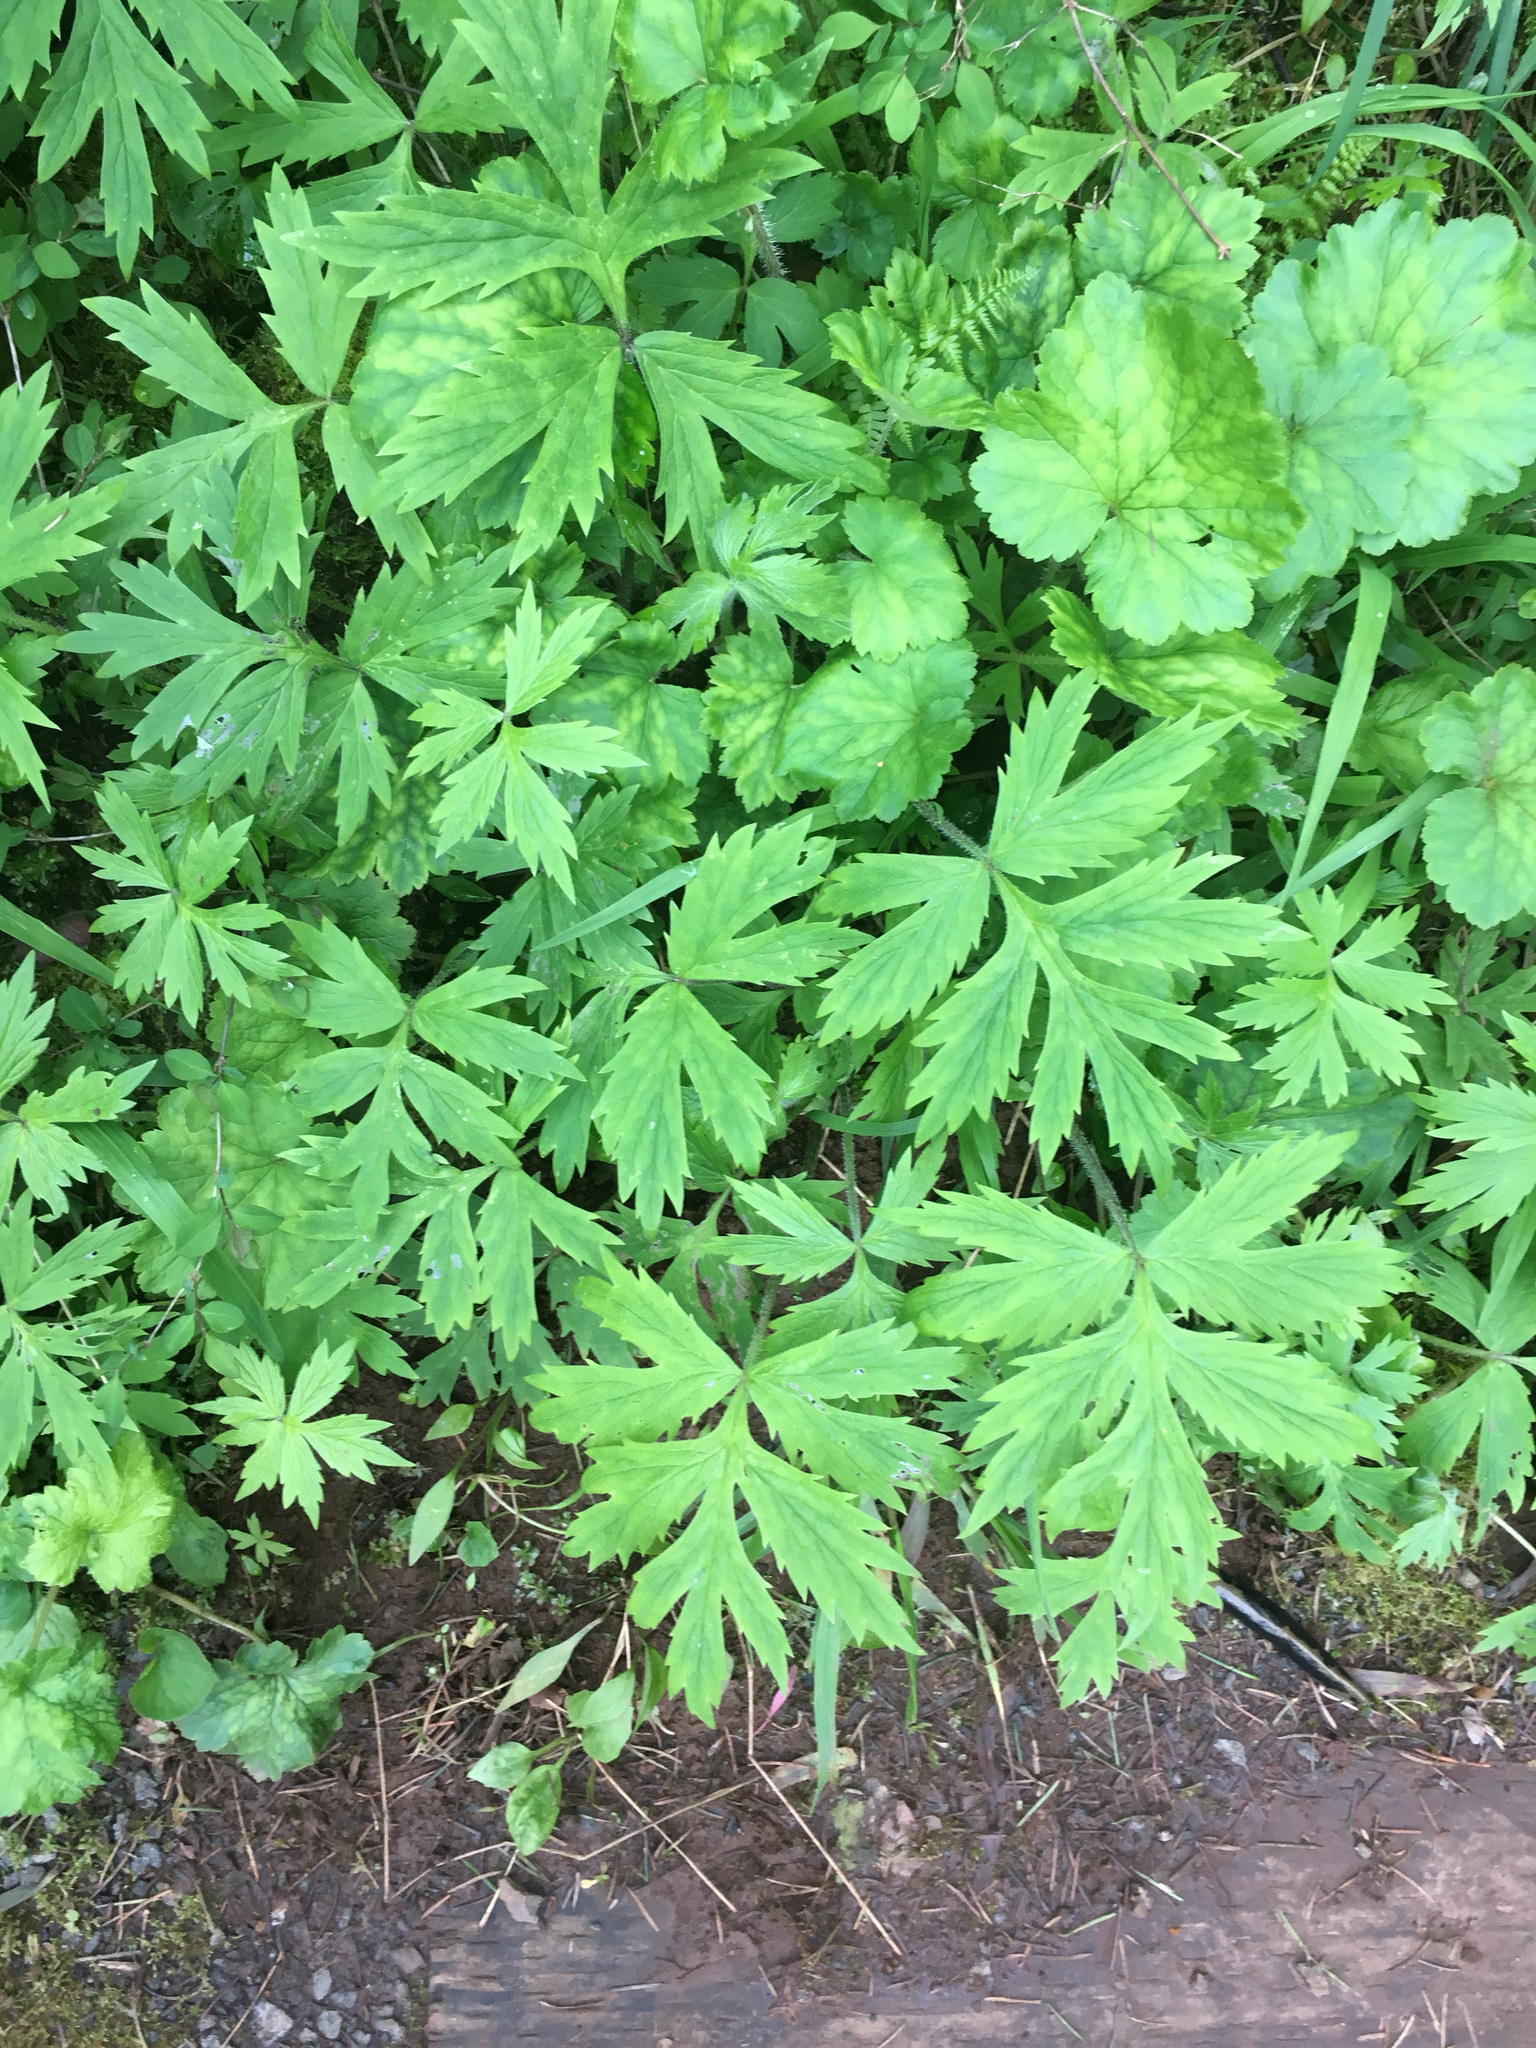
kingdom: Plantae
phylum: Tracheophyta
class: Magnoliopsida
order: Boraginales
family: Hydrophyllaceae
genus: Hydrophyllum
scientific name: Hydrophyllum tenuipes
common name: Pacific waterleaf
